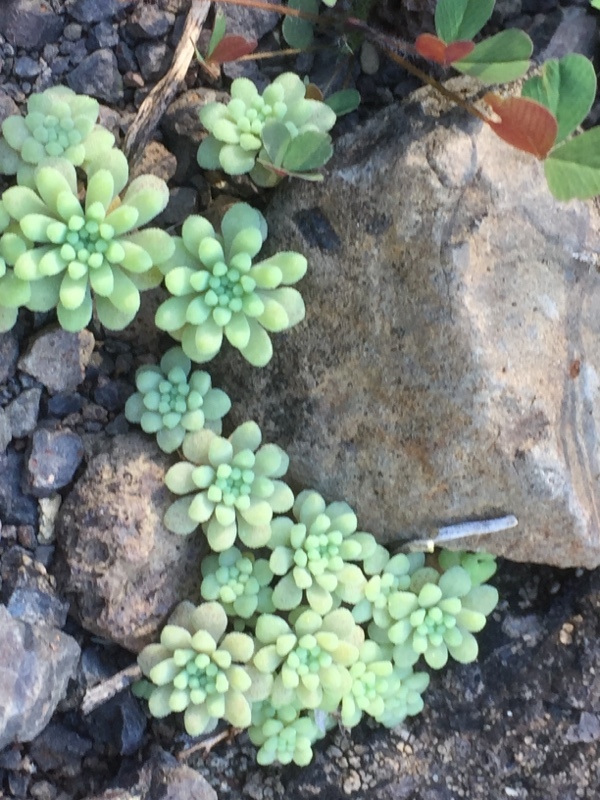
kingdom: Plantae
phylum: Tracheophyta
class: Magnoliopsida
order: Saxifragales
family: Crassulaceae
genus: Sedum
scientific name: Sedum rubens
